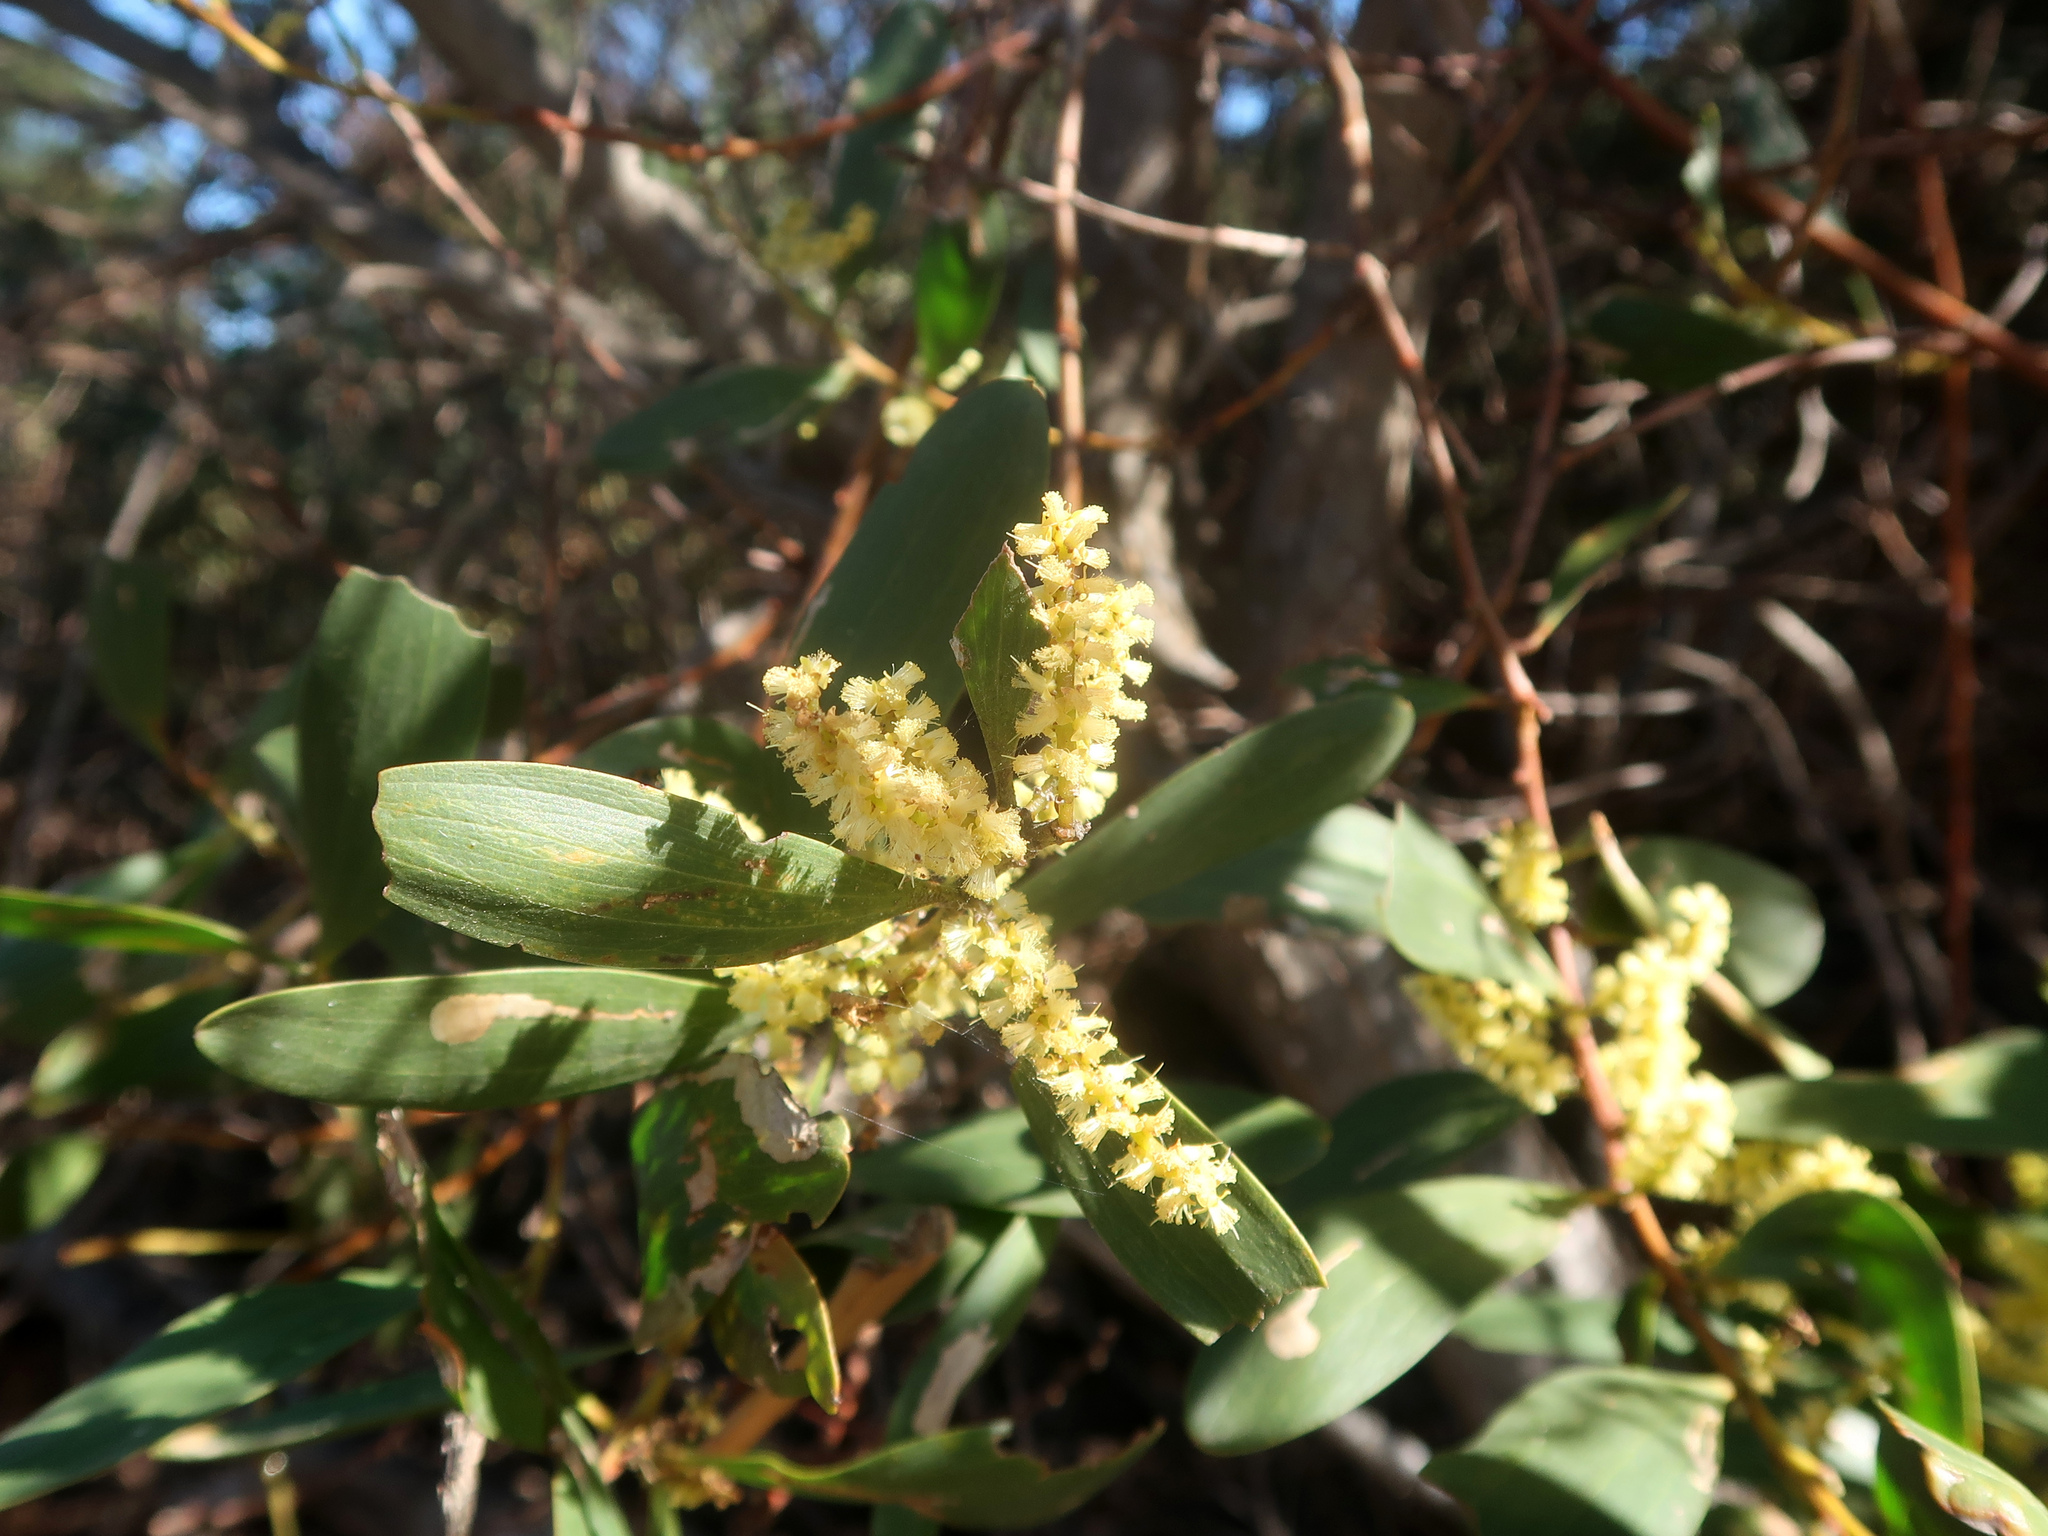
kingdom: Plantae
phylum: Tracheophyta
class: Magnoliopsida
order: Fabales
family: Fabaceae
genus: Acacia
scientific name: Acacia longifolia
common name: Sydney golden wattle
